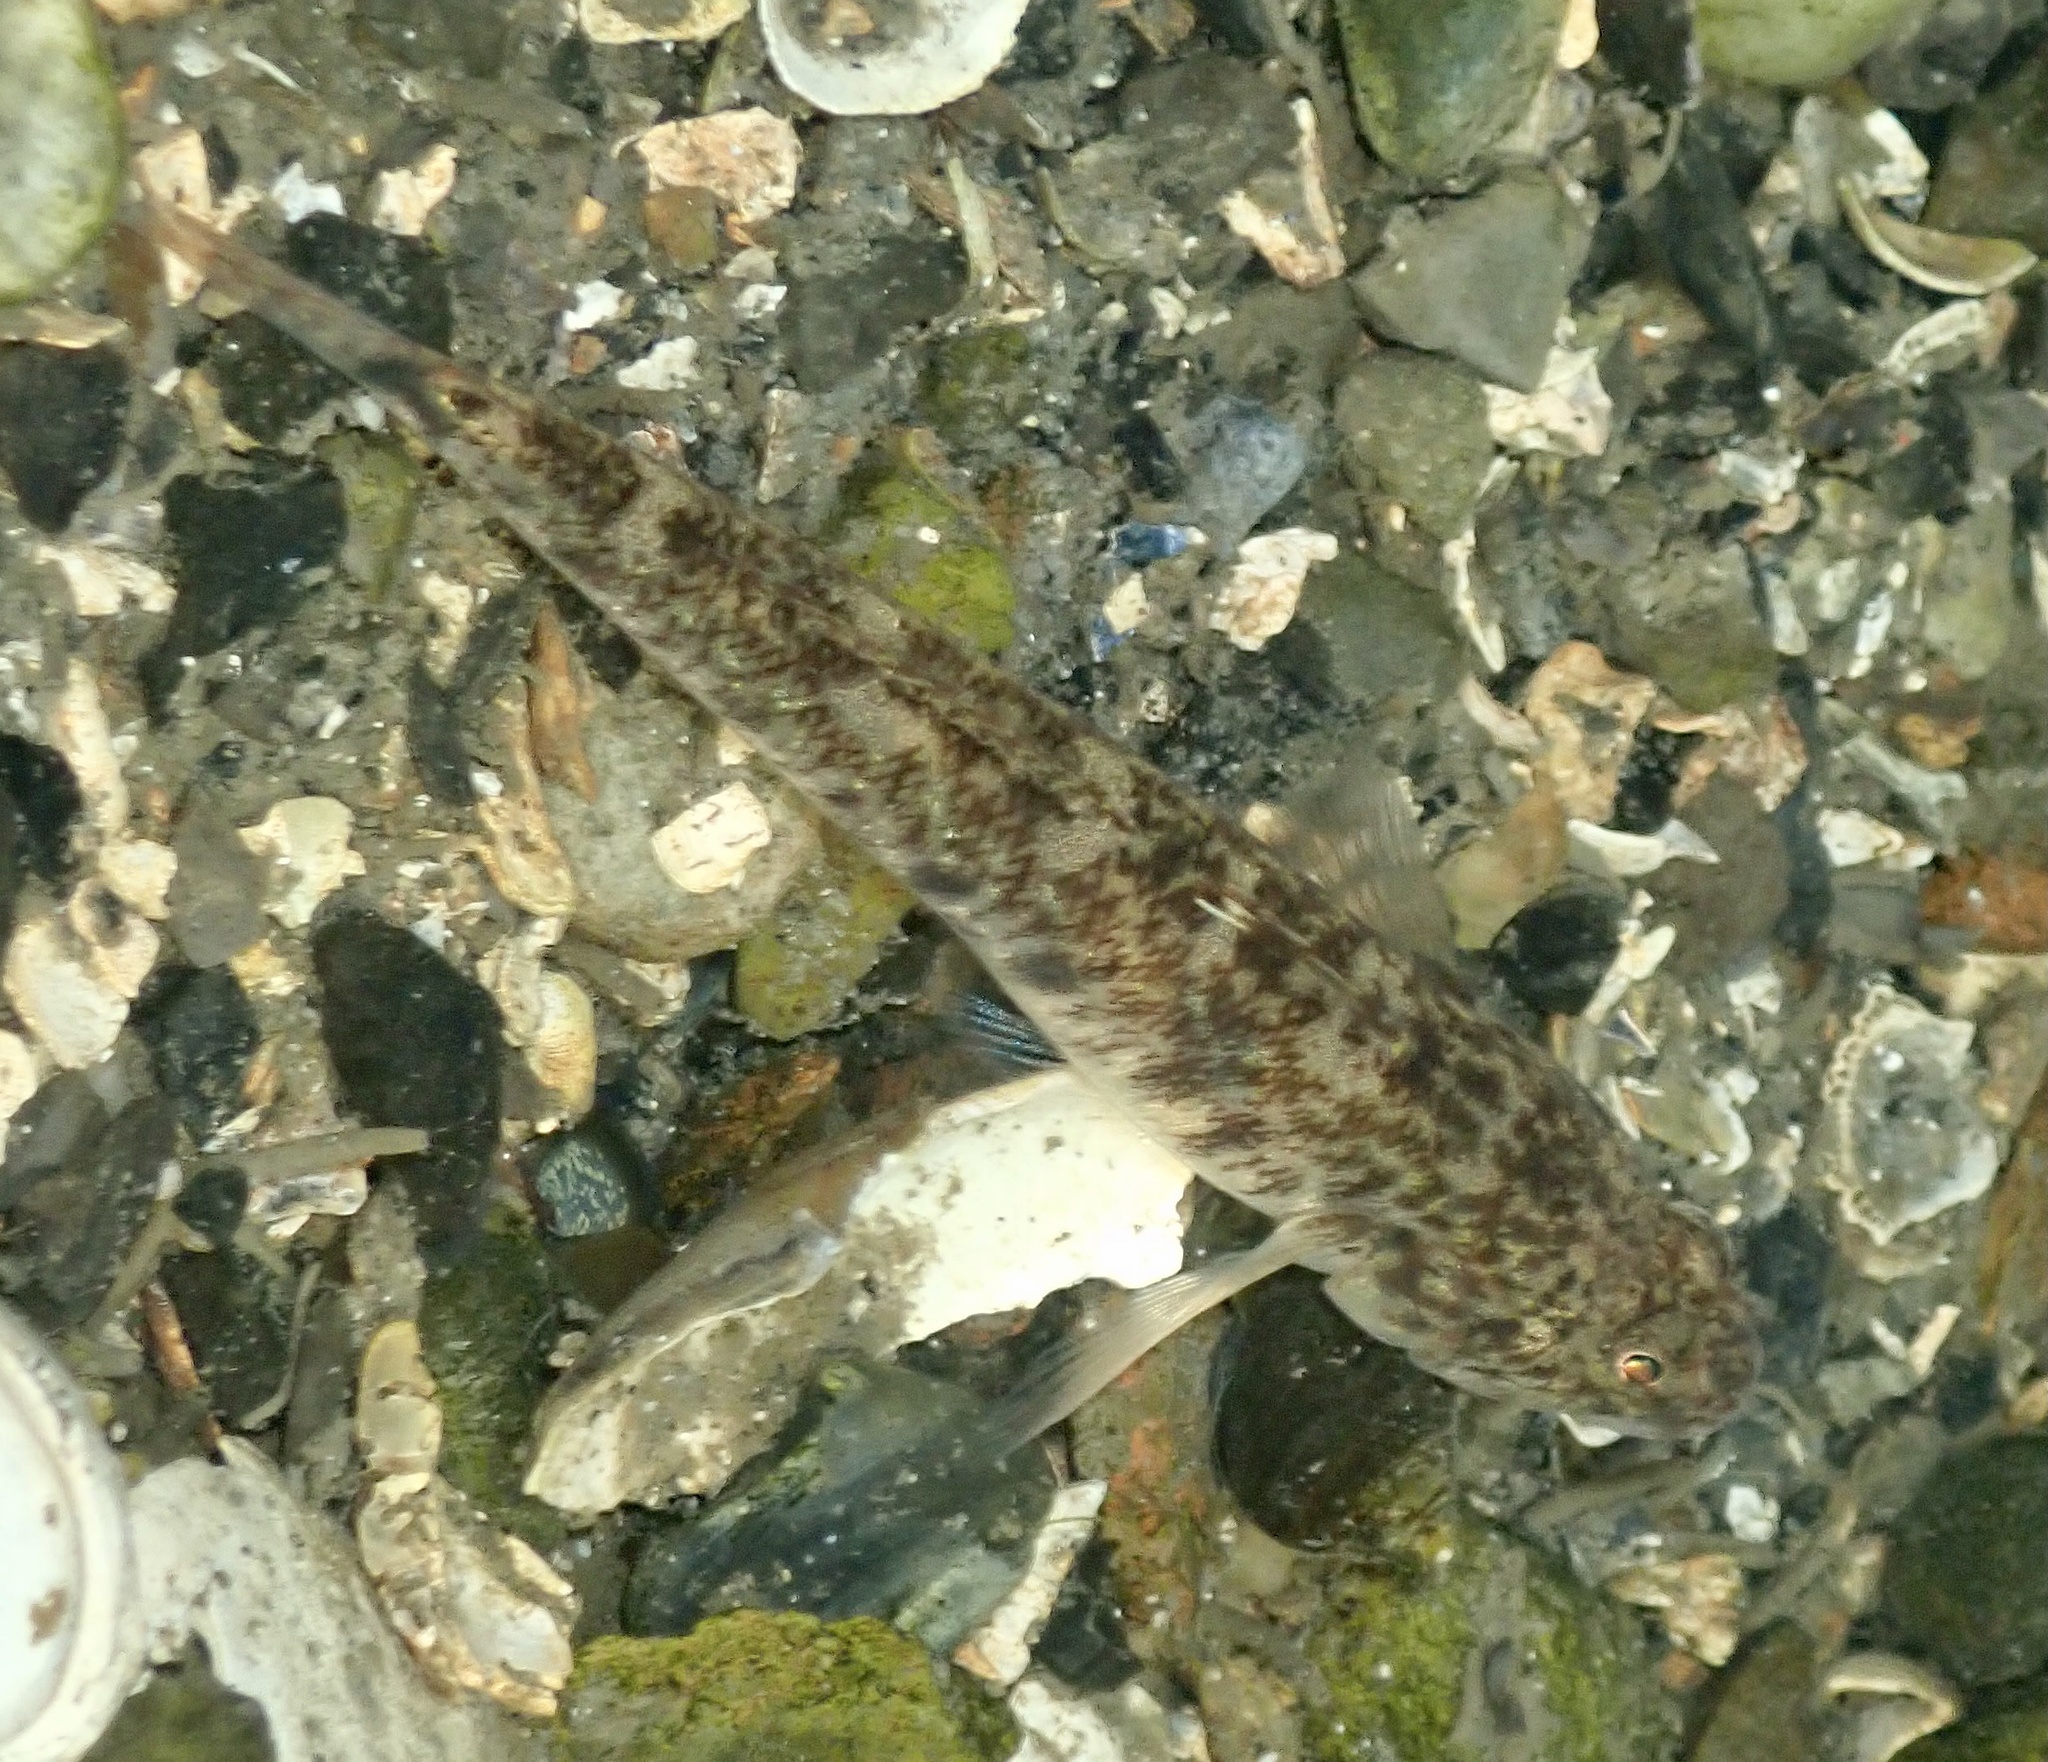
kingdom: Animalia
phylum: Chordata
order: Perciformes
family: Gobiidae
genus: Pomatoschistus
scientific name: Pomatoschistus microps
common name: Common goby
